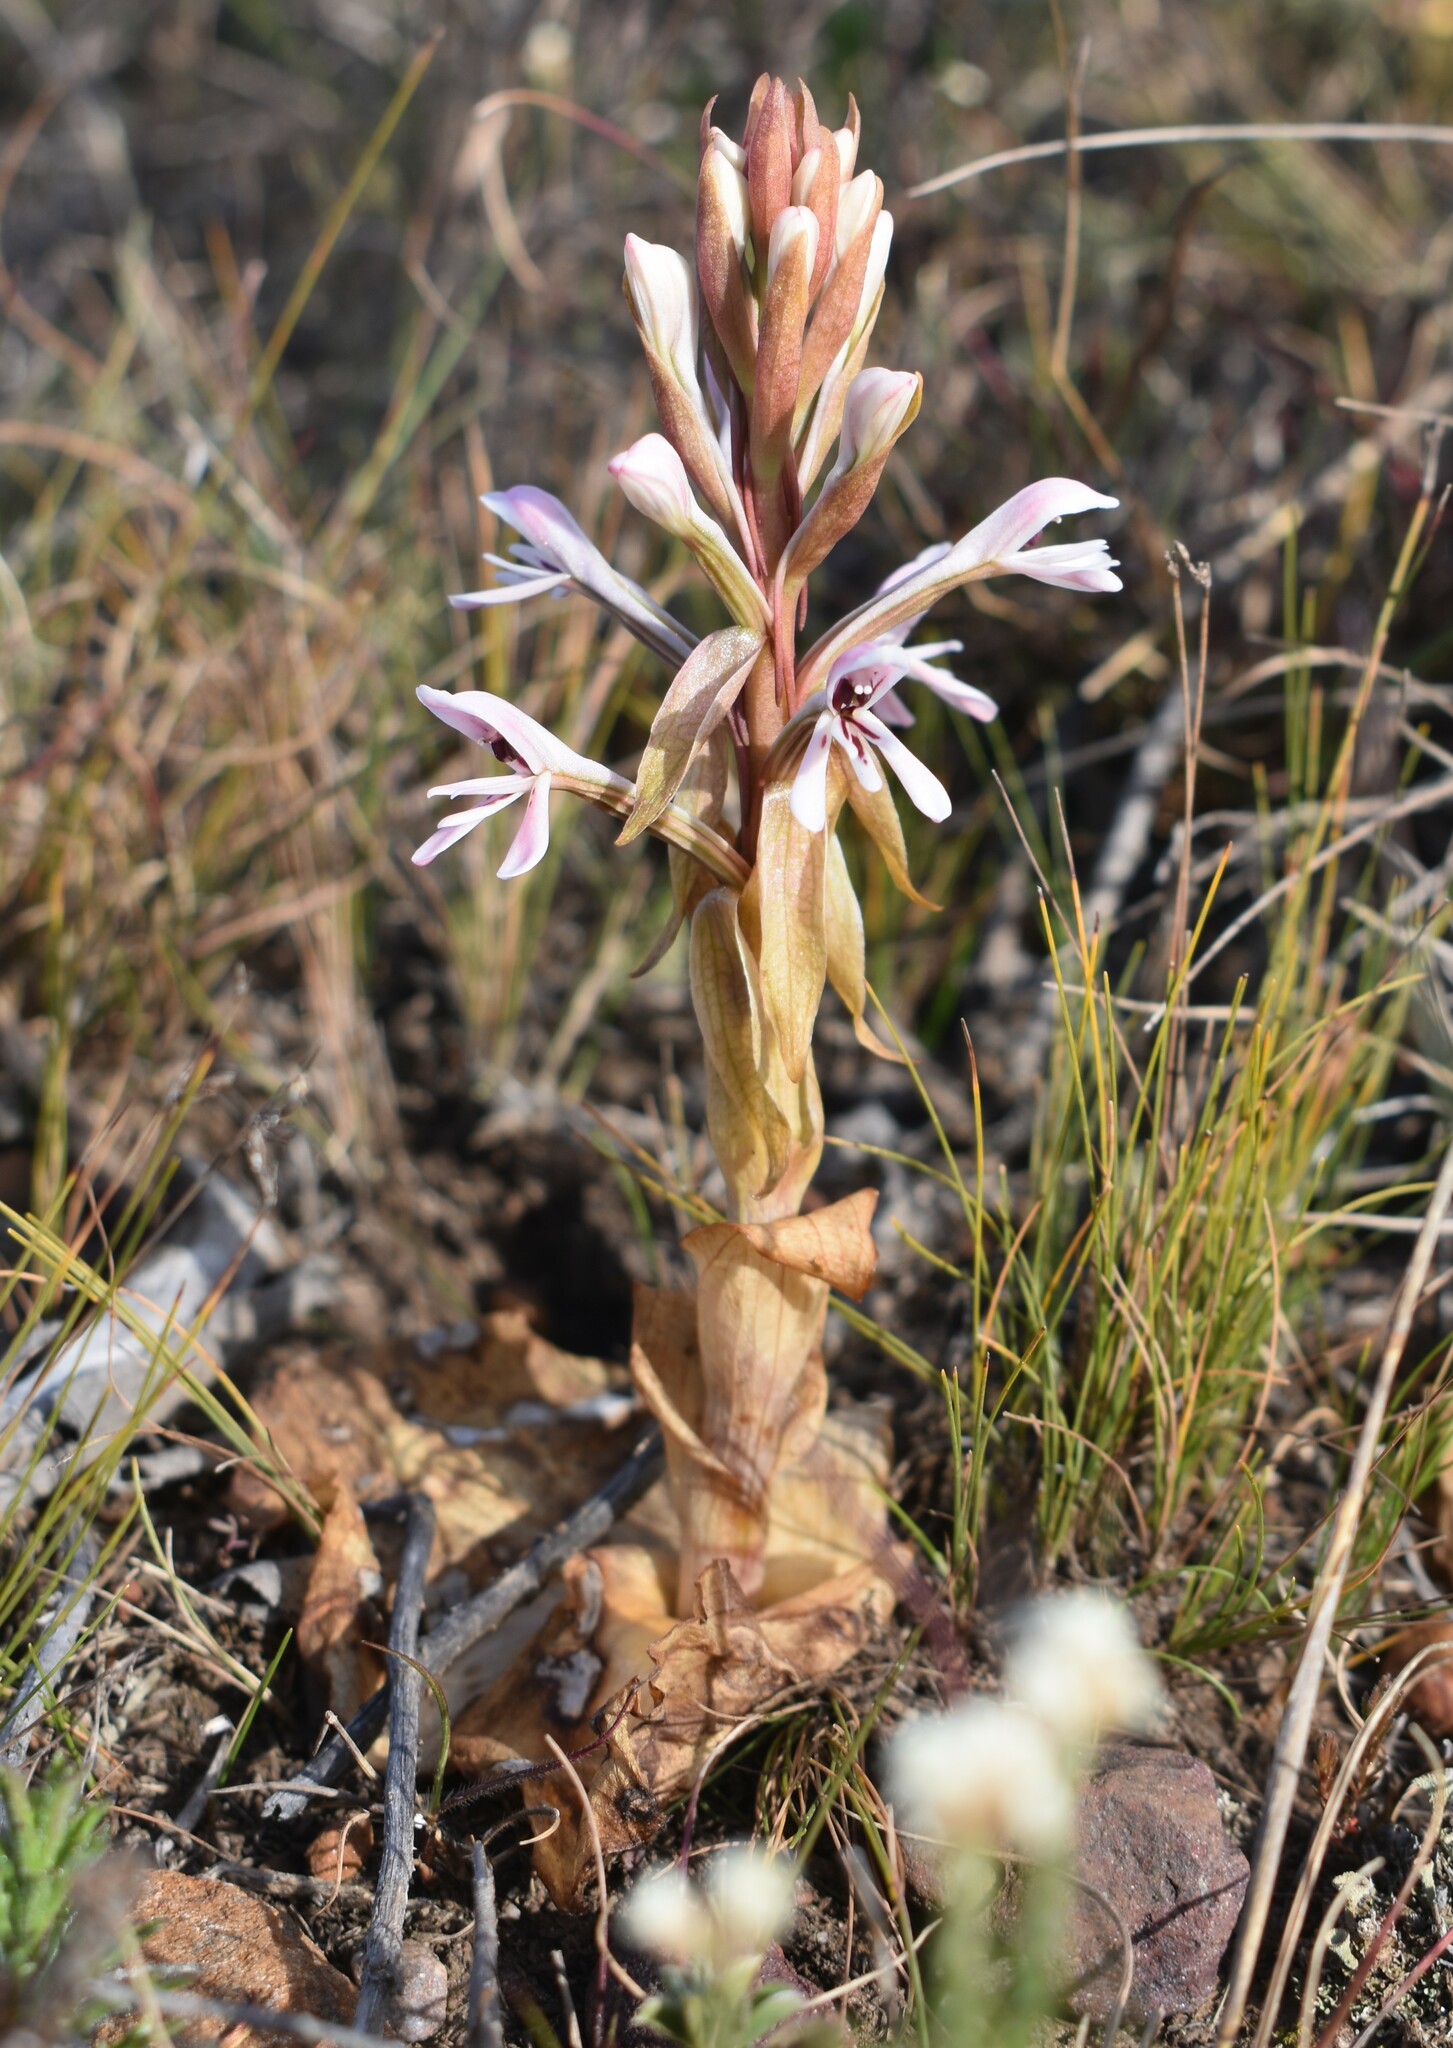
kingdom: Plantae
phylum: Tracheophyta
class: Liliopsida
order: Asparagales
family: Orchidaceae
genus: Satyrium
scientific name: Satyrium longicolle
